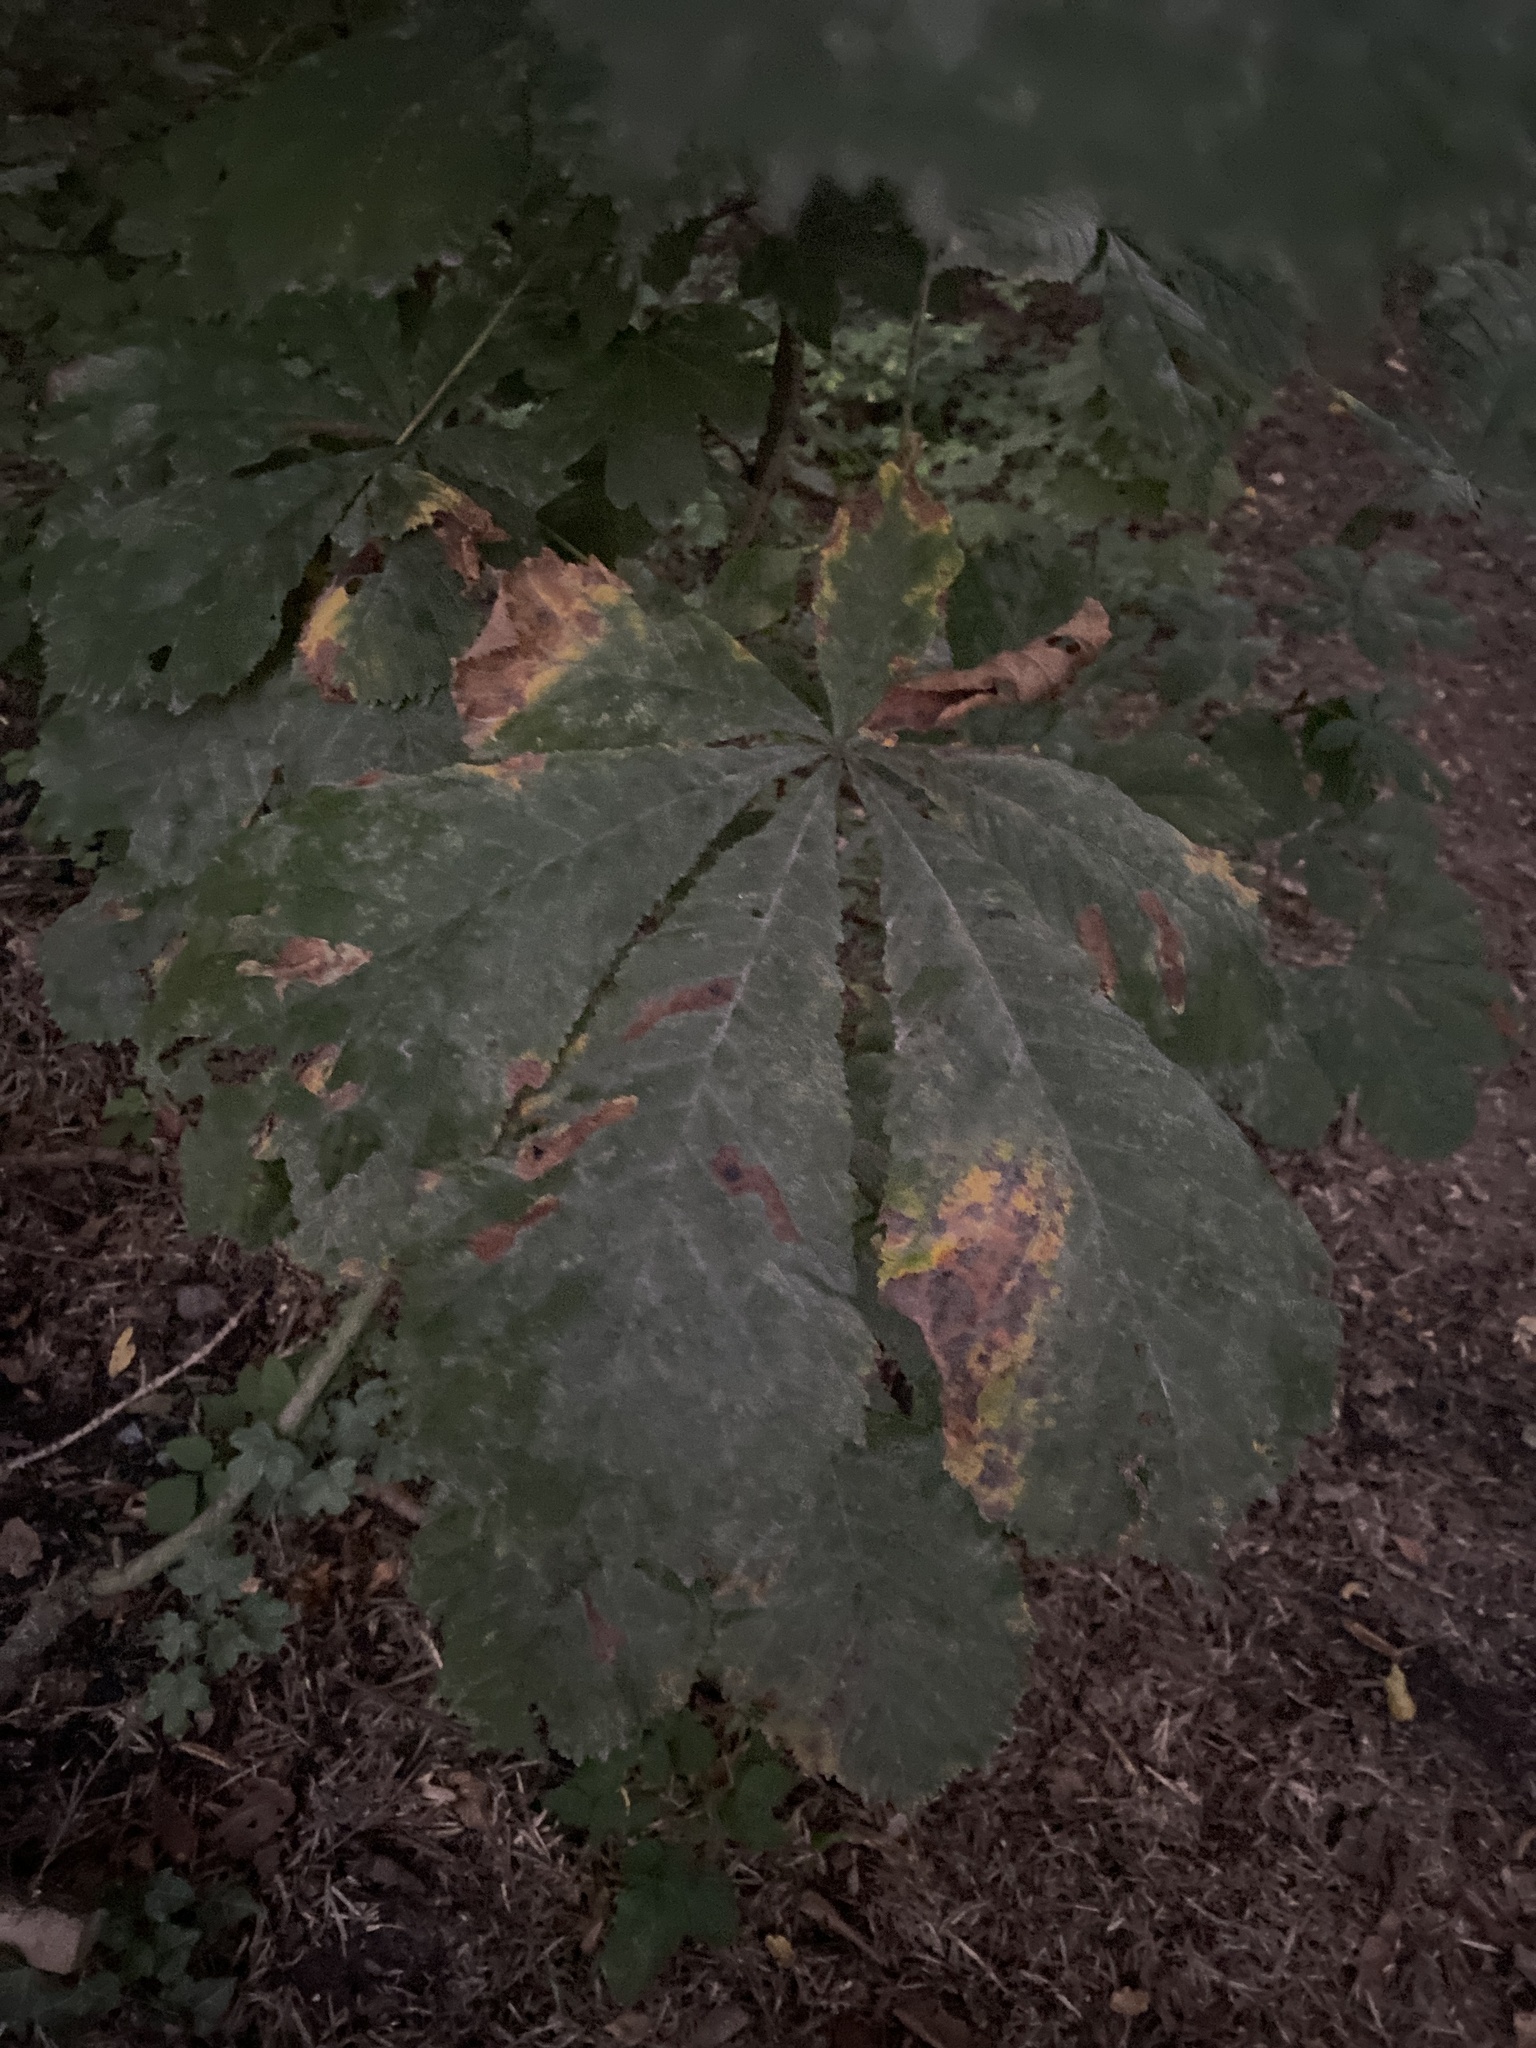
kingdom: Plantae
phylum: Tracheophyta
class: Magnoliopsida
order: Sapindales
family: Sapindaceae
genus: Aesculus
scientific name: Aesculus hippocastanum
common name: Horse-chestnut
